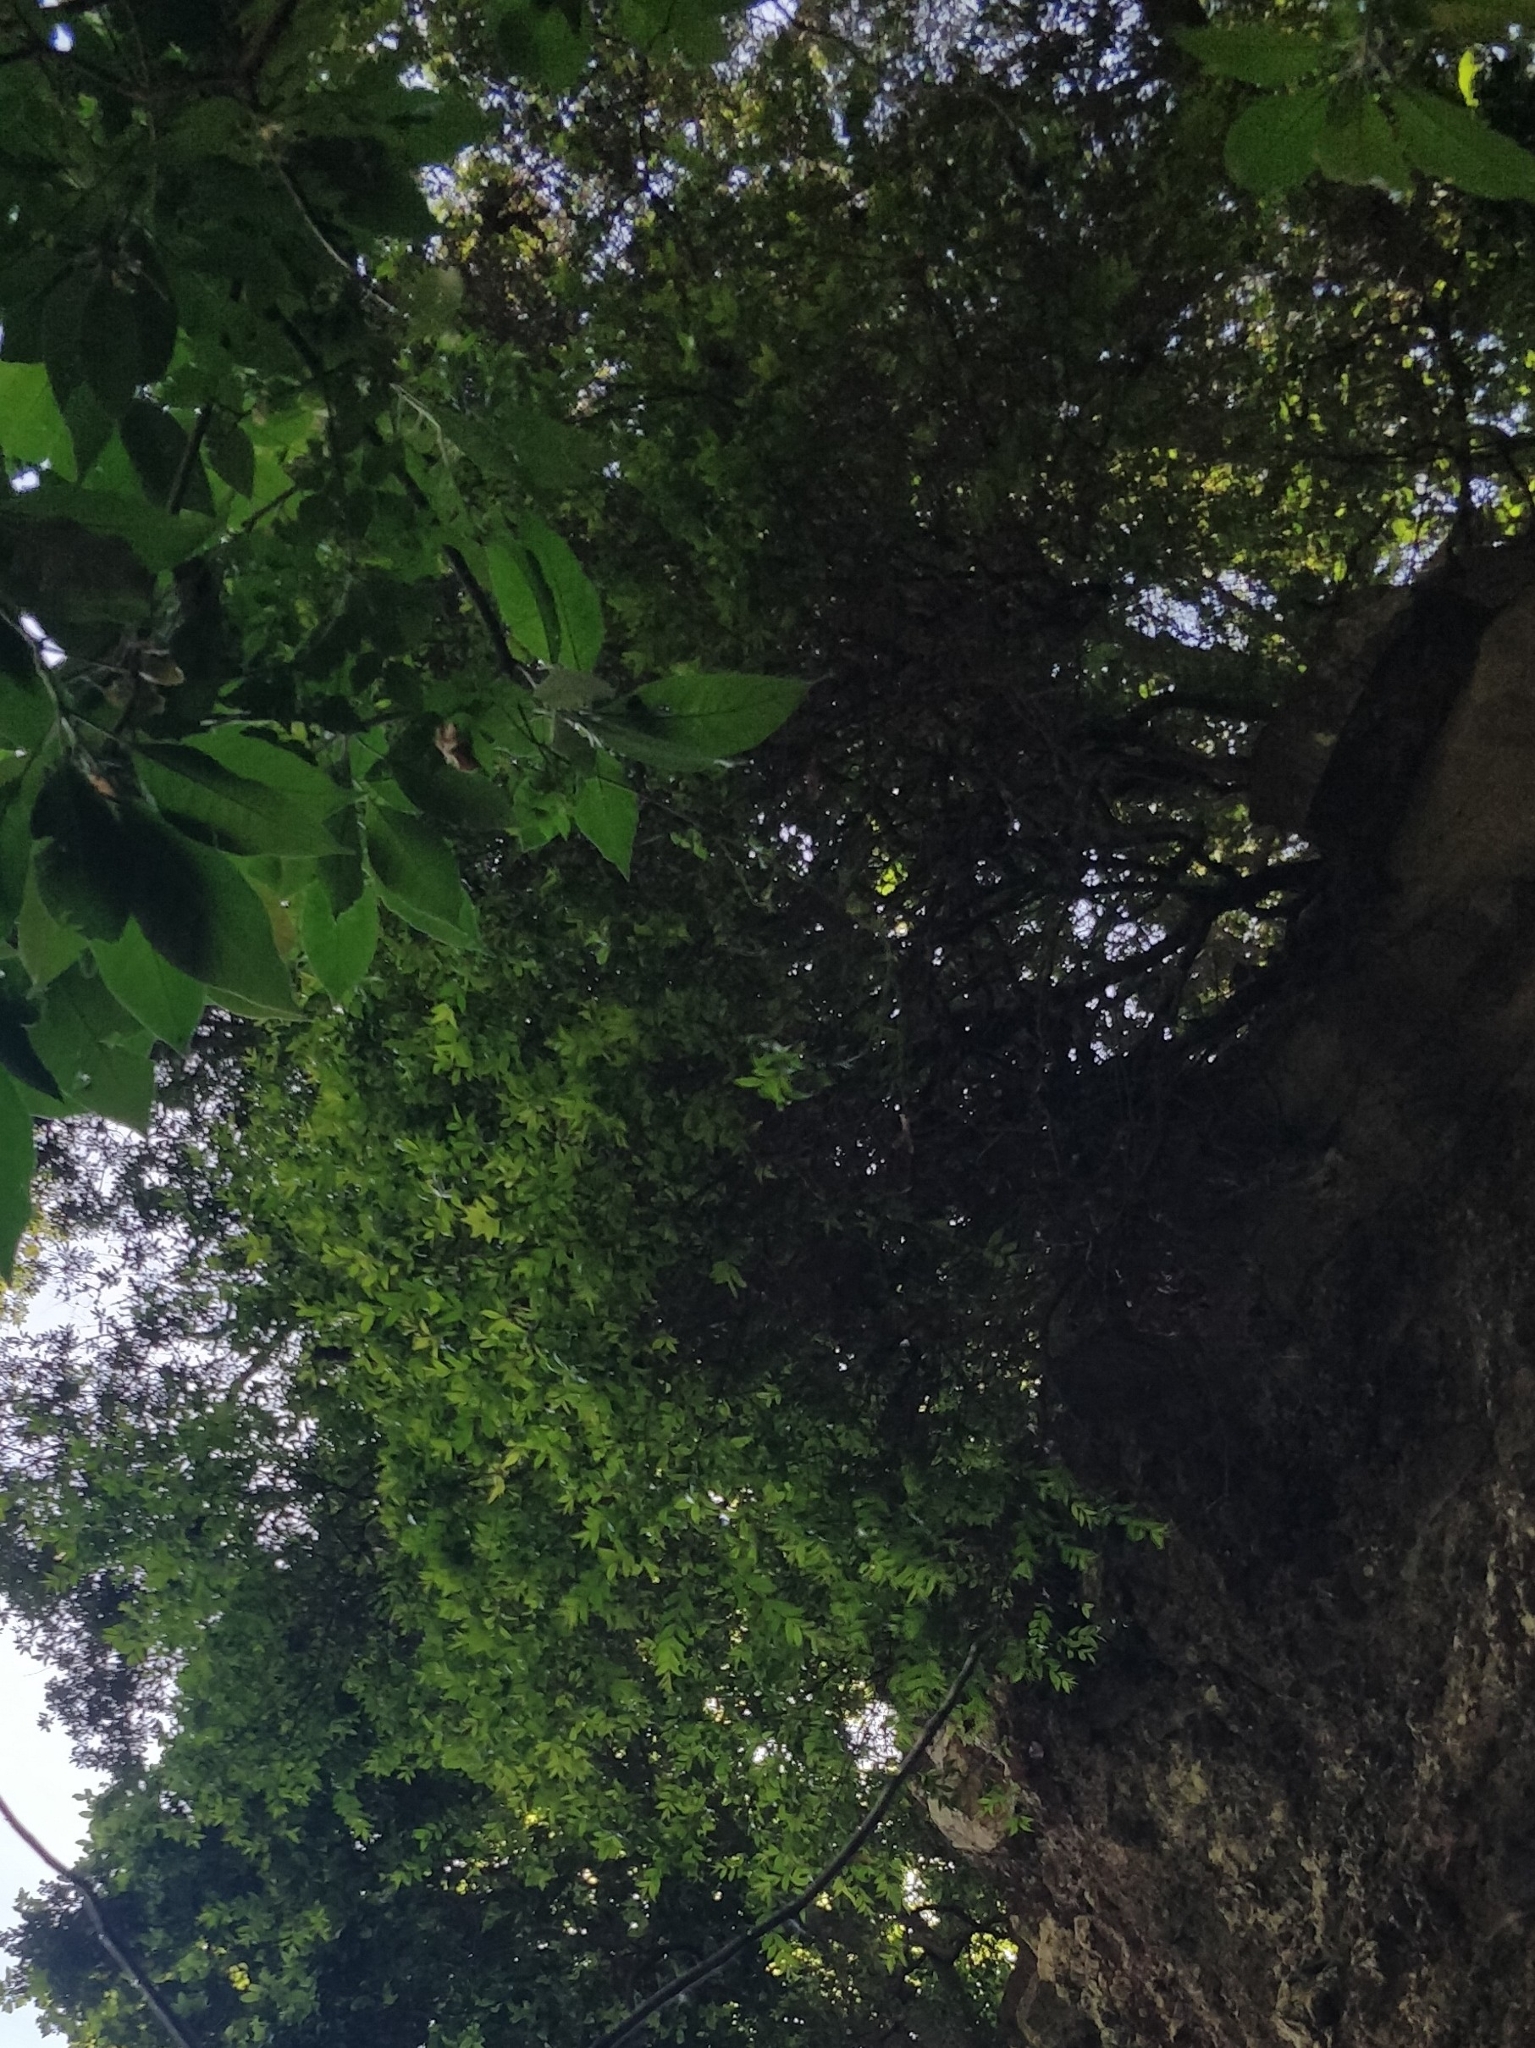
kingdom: Plantae
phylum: Tracheophyta
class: Magnoliopsida
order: Myrtales
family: Myrtaceae
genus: Myrtus
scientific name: Myrtus communis
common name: Myrtle
